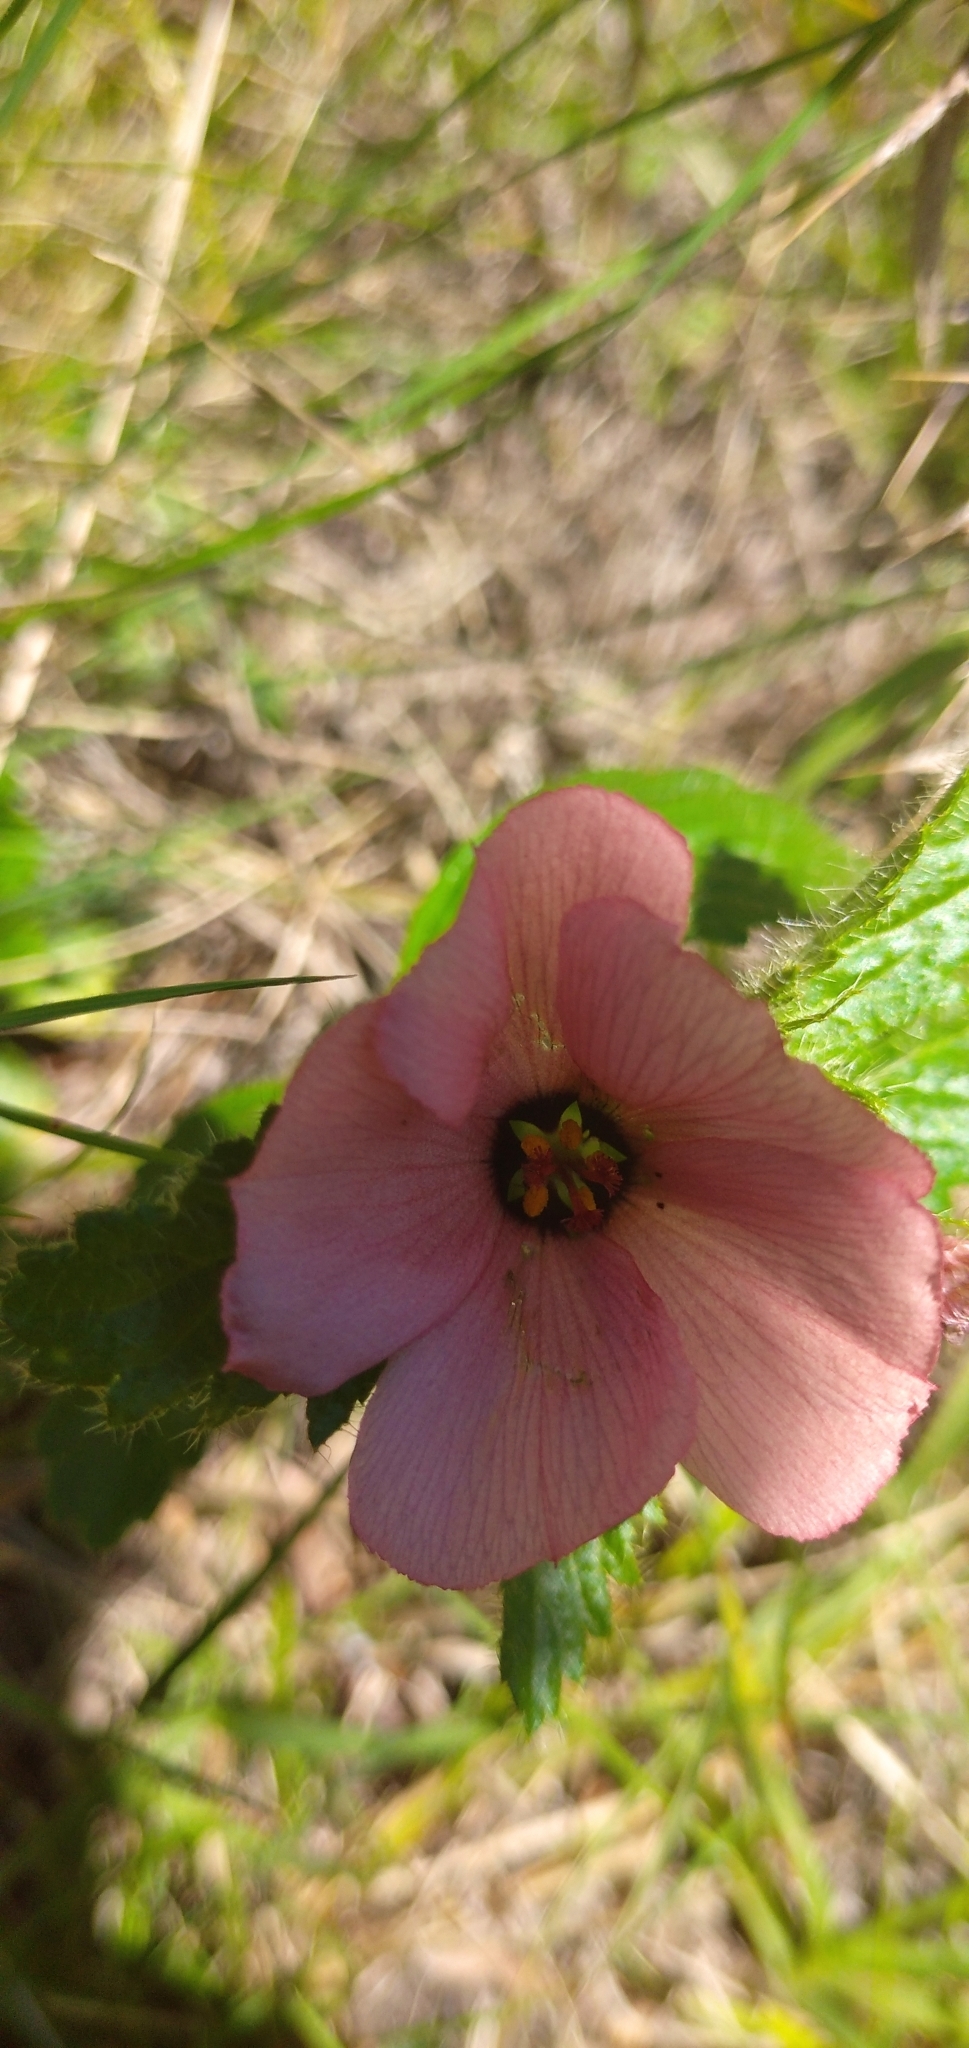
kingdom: Plantae
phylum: Tracheophyta
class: Magnoliopsida
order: Malpighiales
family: Turneraceae
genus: Turnera
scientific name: Turnera sidoides
